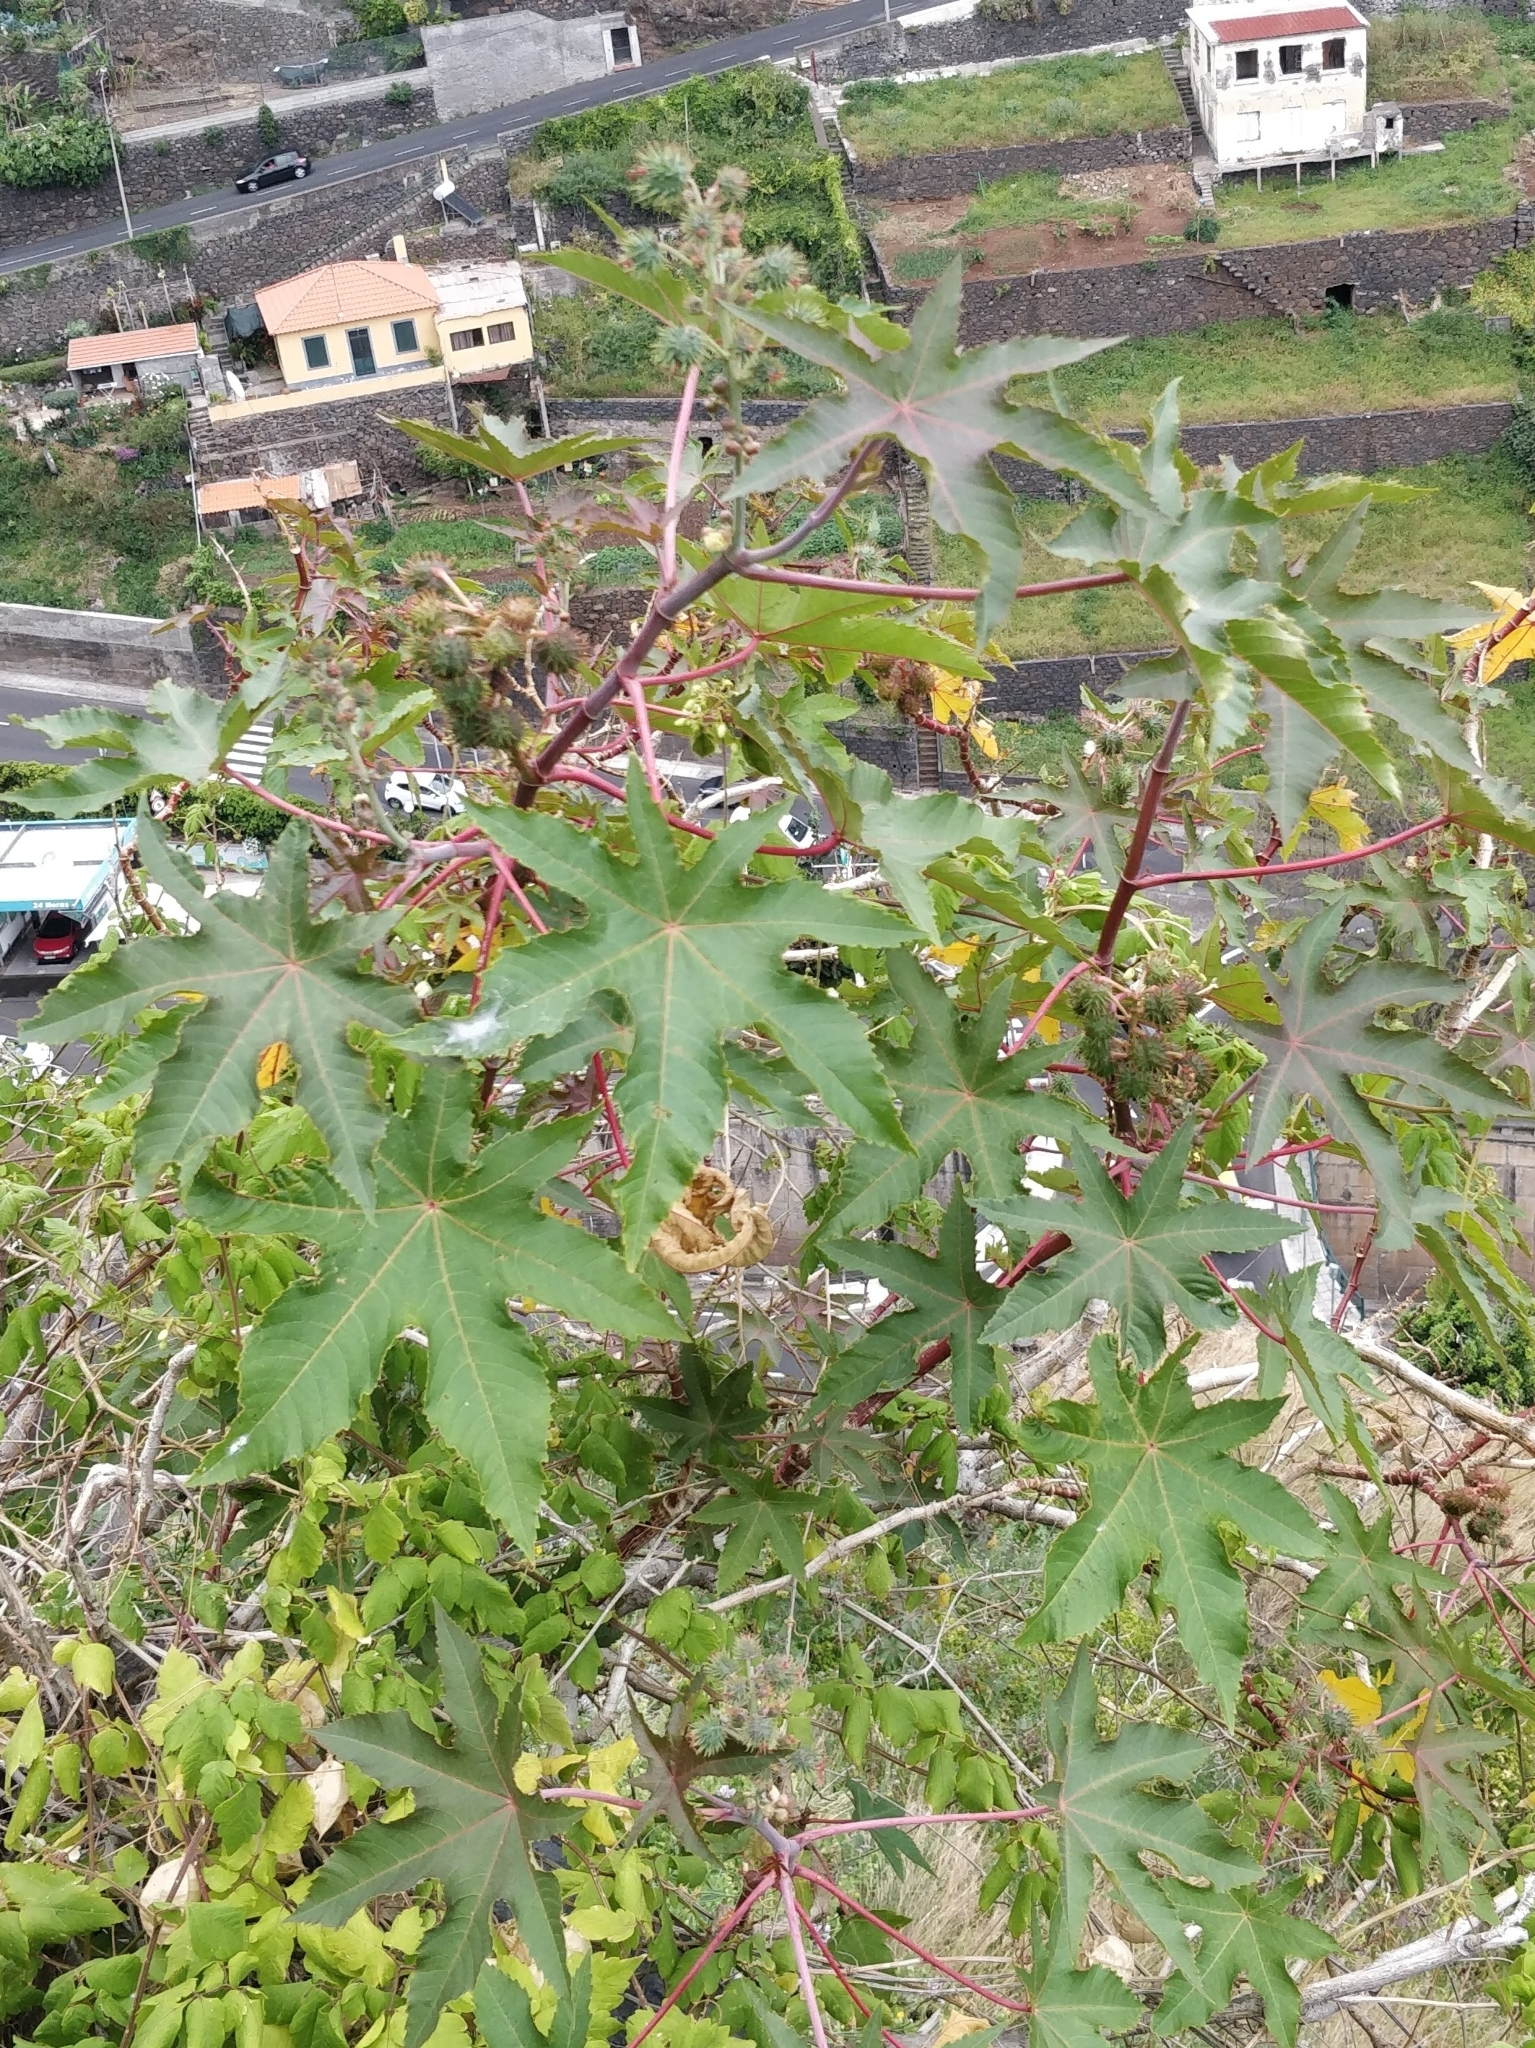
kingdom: Plantae
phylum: Tracheophyta
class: Magnoliopsida
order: Malpighiales
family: Euphorbiaceae
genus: Ricinus
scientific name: Ricinus communis
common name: Castor-oil-plant
